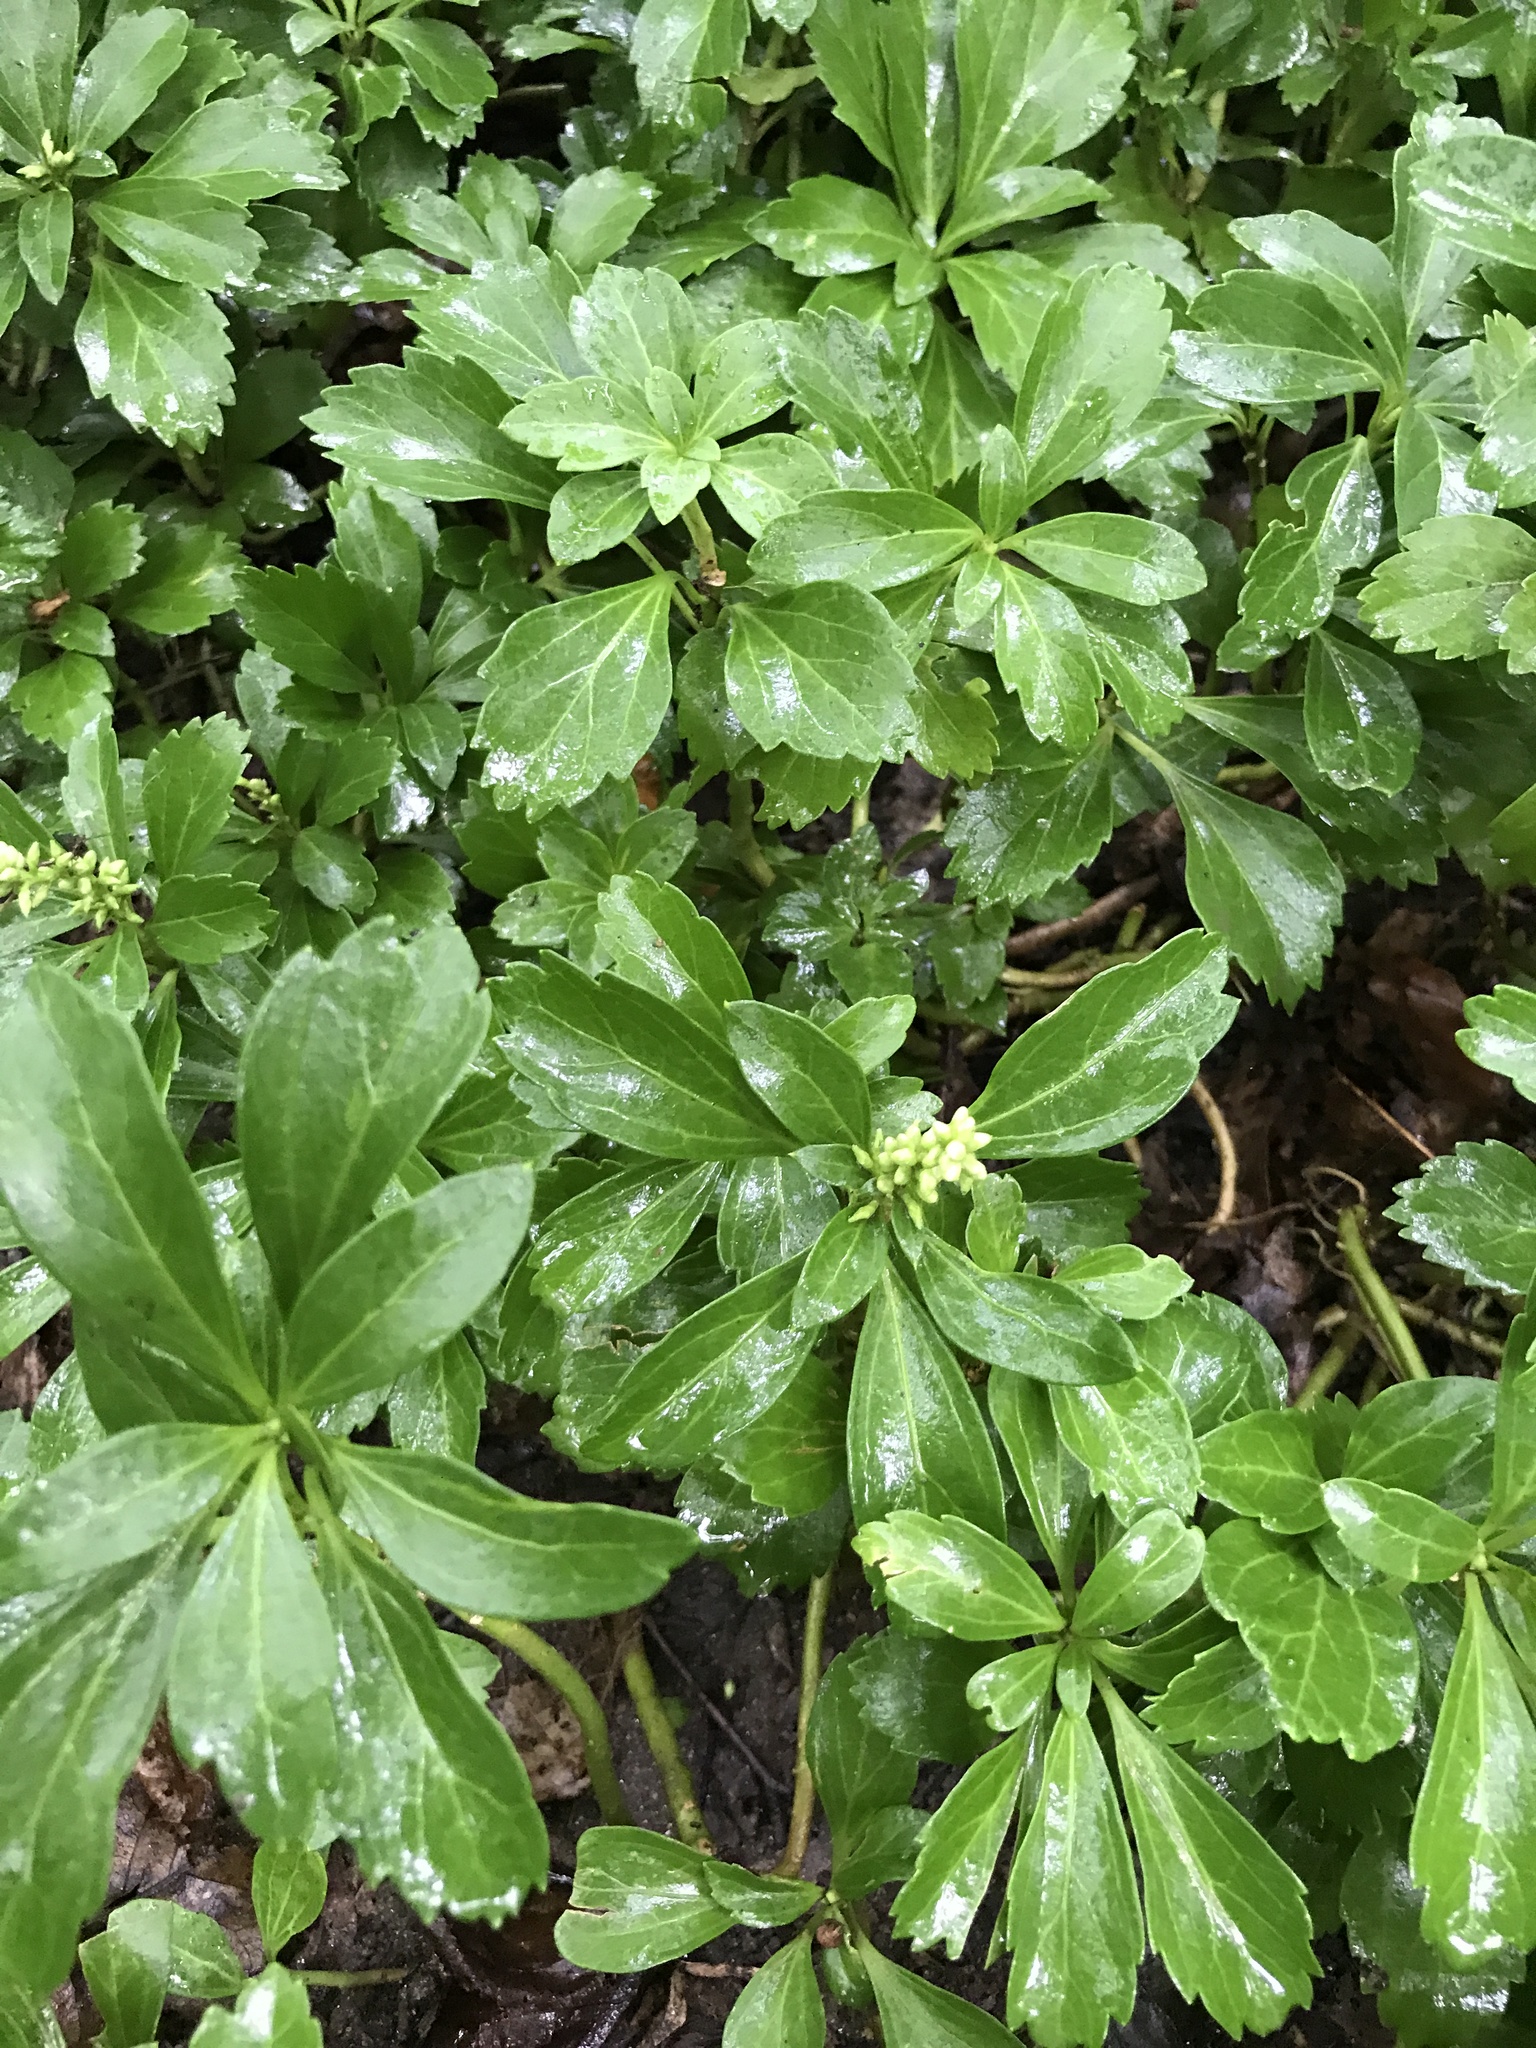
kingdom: Plantae
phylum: Tracheophyta
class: Magnoliopsida
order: Buxales
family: Buxaceae
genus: Pachysandra
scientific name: Pachysandra terminalis
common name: Japanese pachysandra
